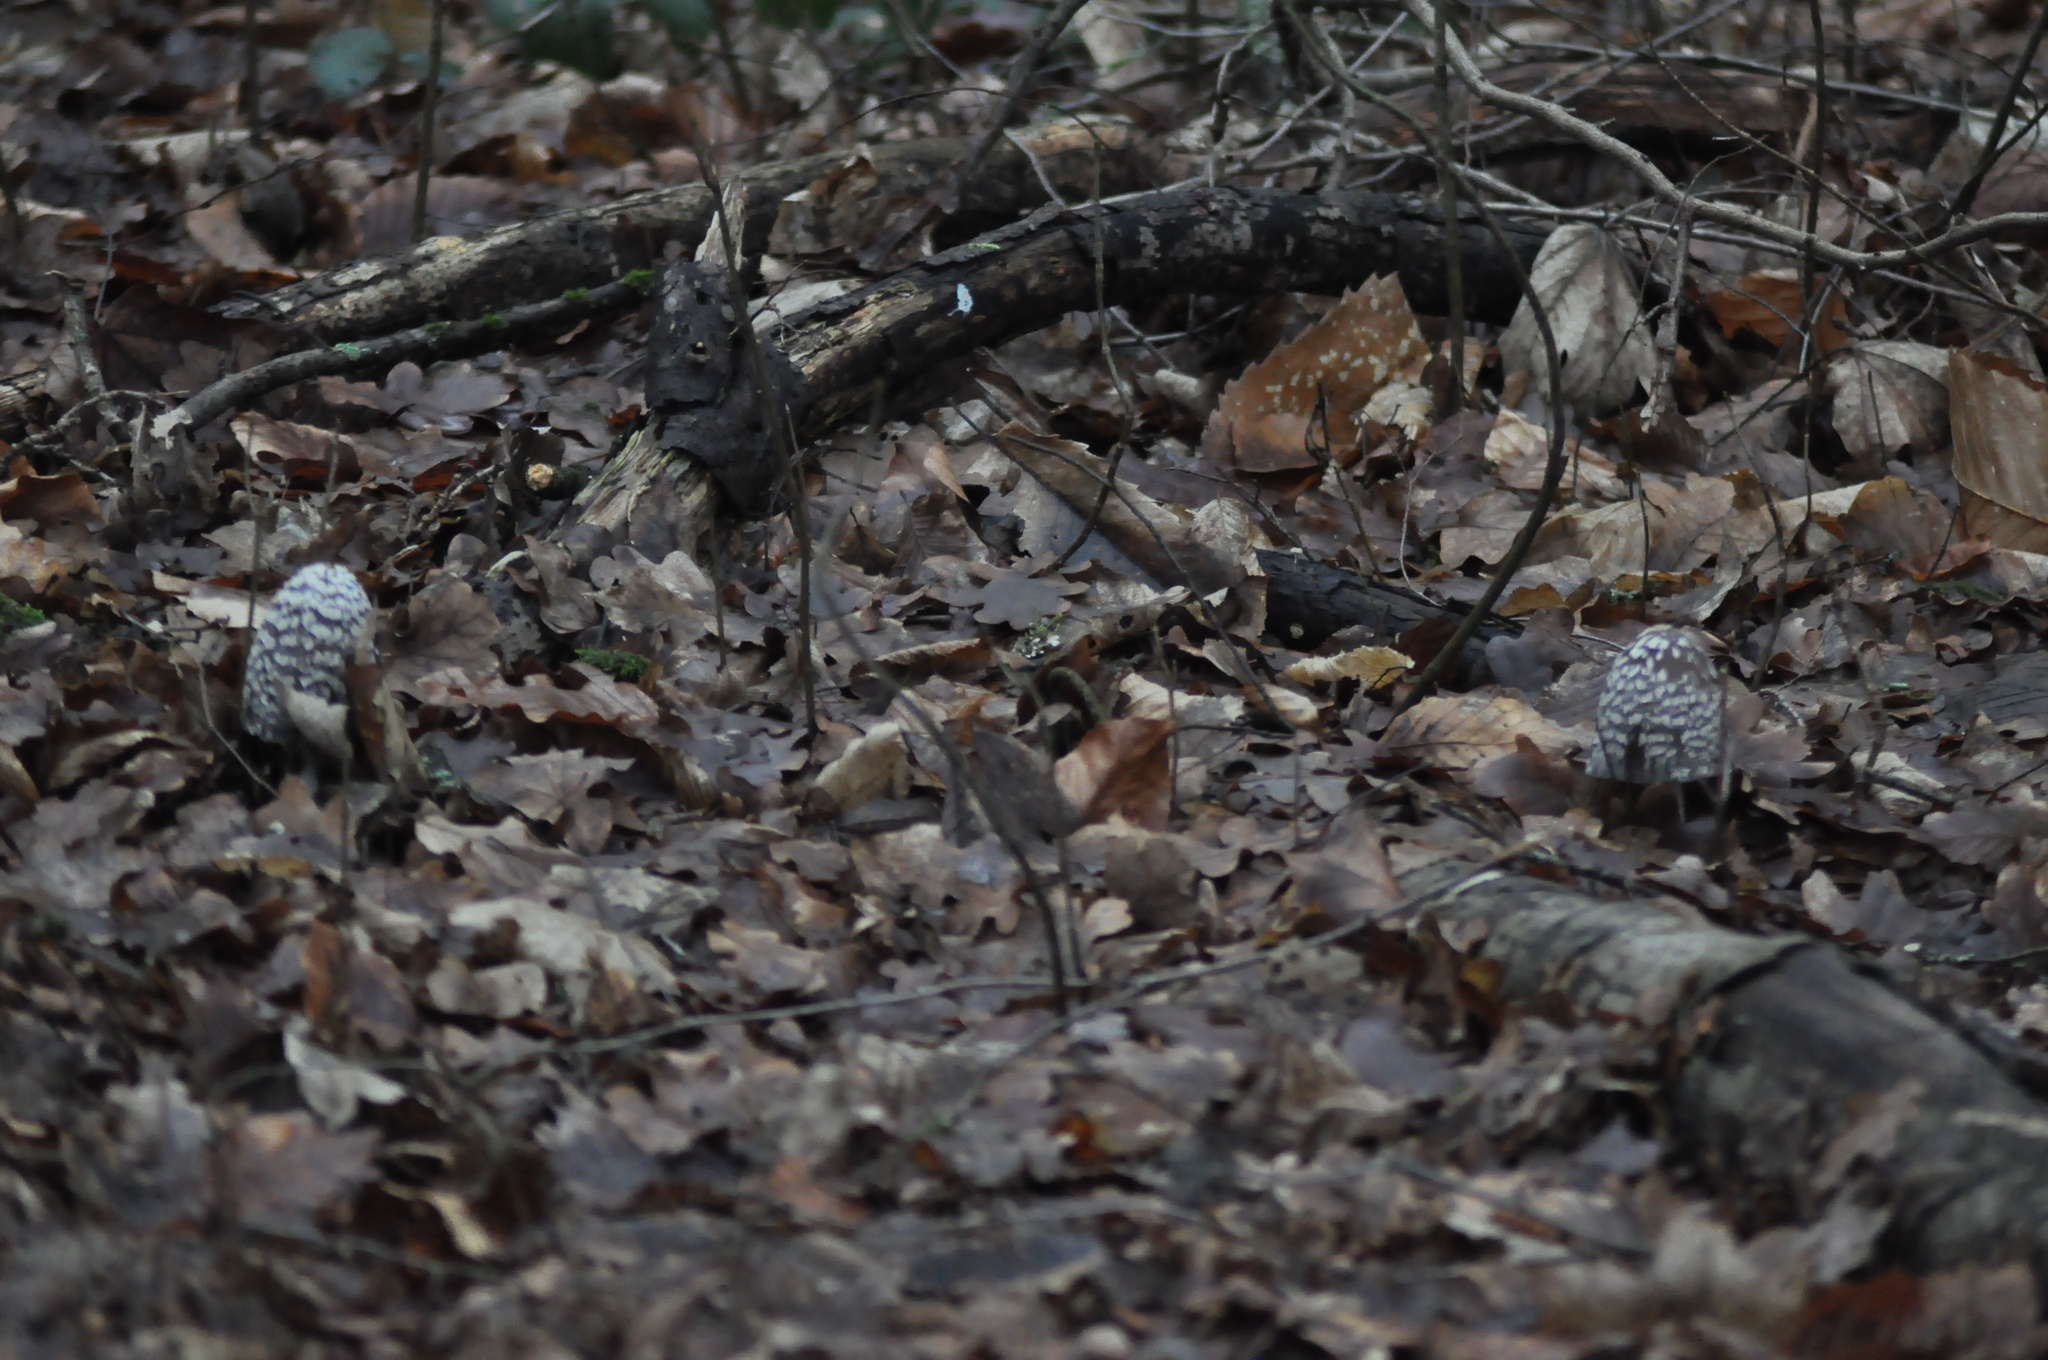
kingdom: Fungi
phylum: Basidiomycota
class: Agaricomycetes
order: Agaricales
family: Psathyrellaceae
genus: Coprinopsis
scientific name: Coprinopsis picacea
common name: Magpie inkcap
